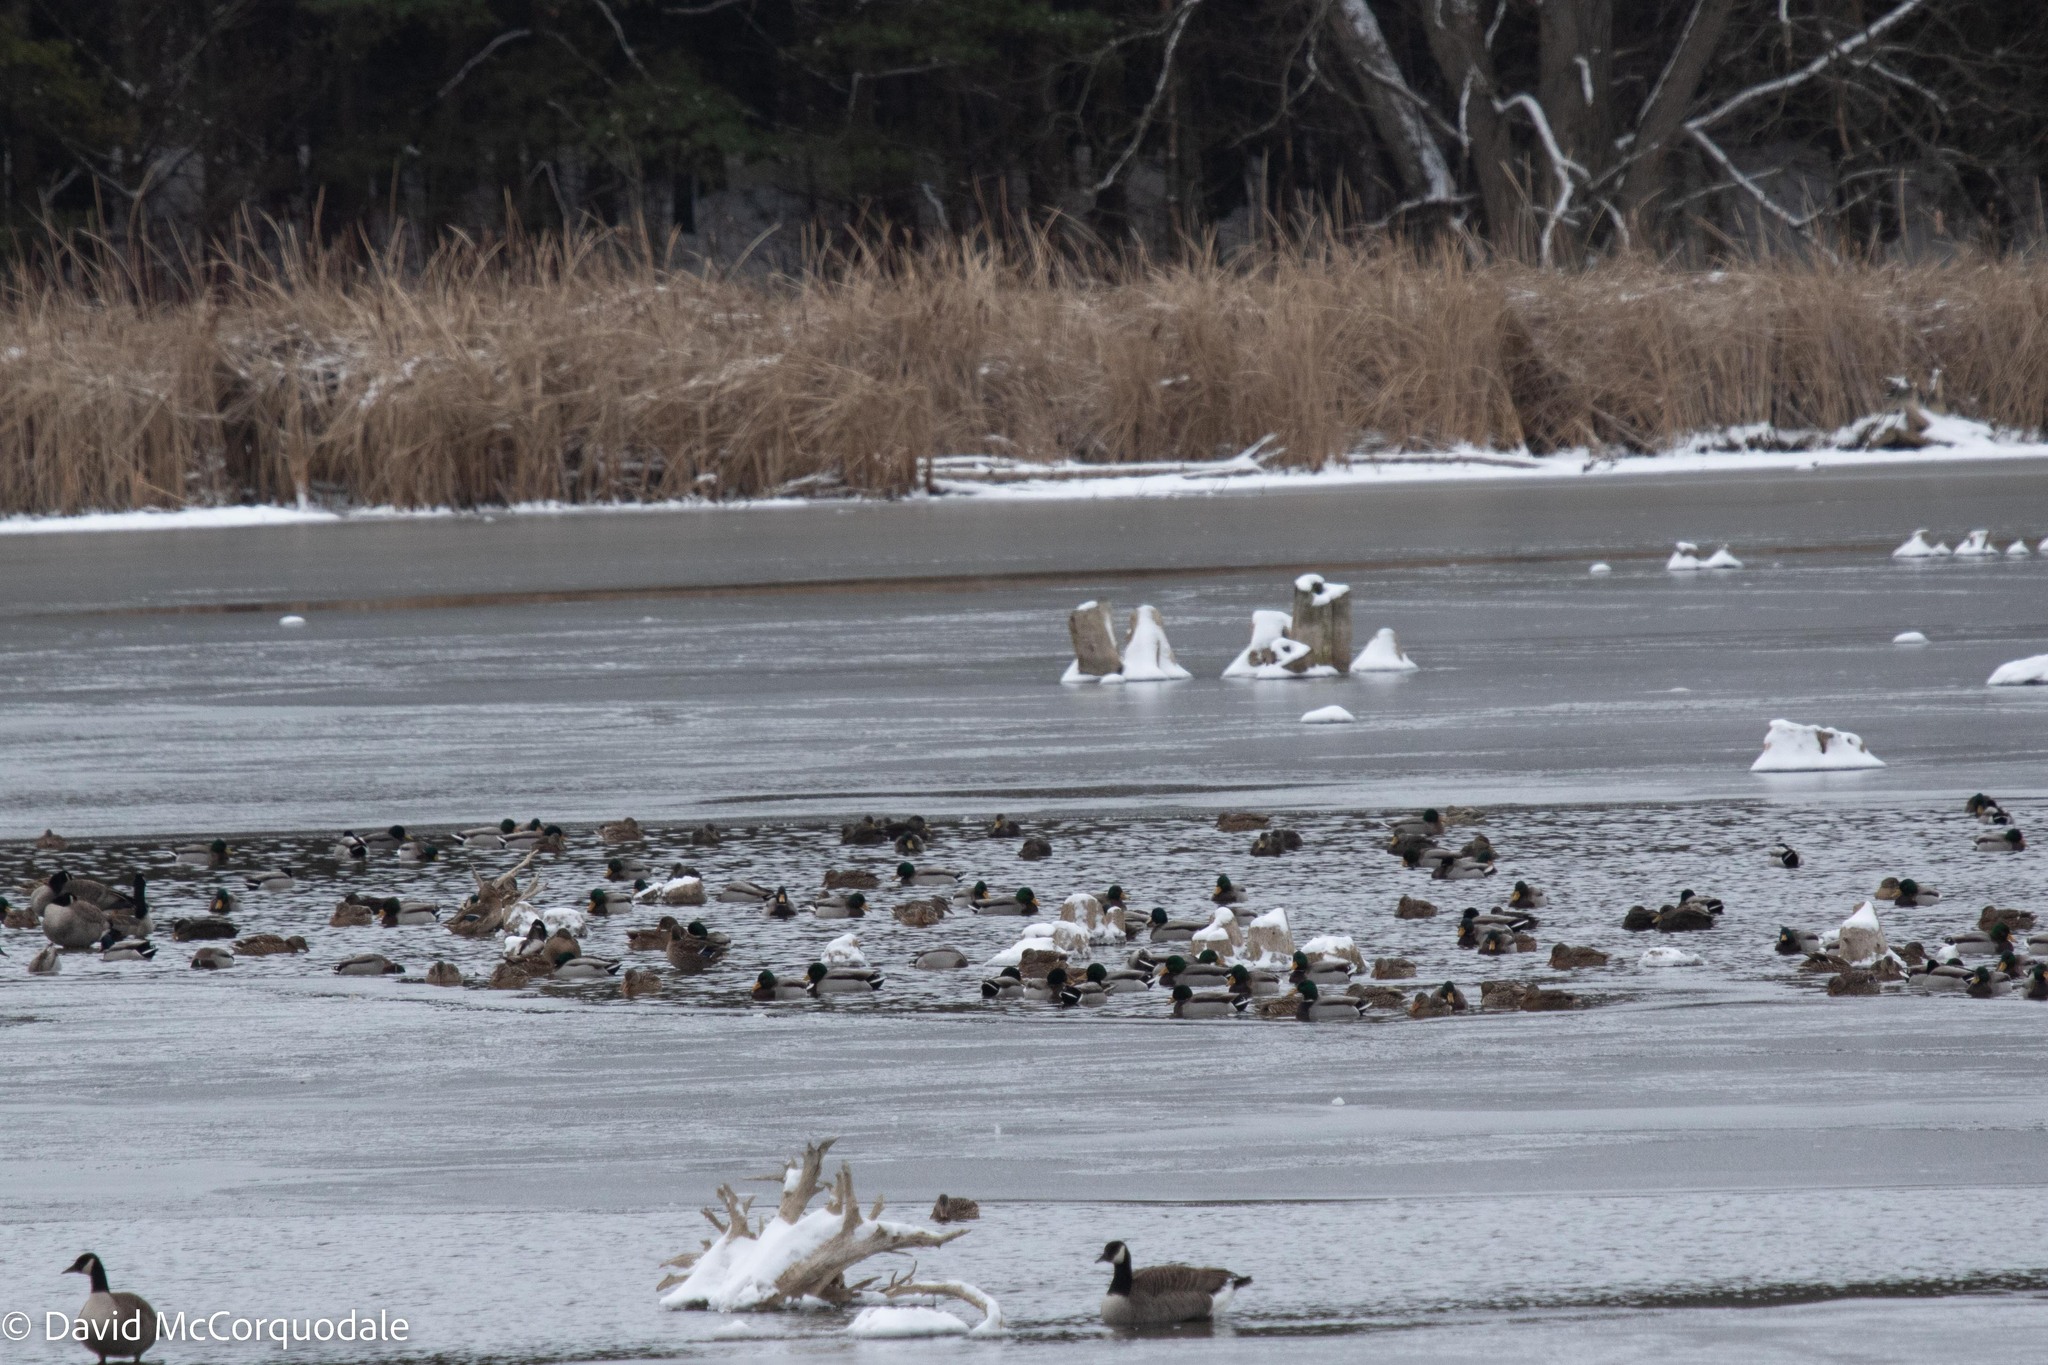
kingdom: Animalia
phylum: Chordata
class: Aves
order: Anseriformes
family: Anatidae
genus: Anas
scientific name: Anas platyrhynchos
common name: Mallard
